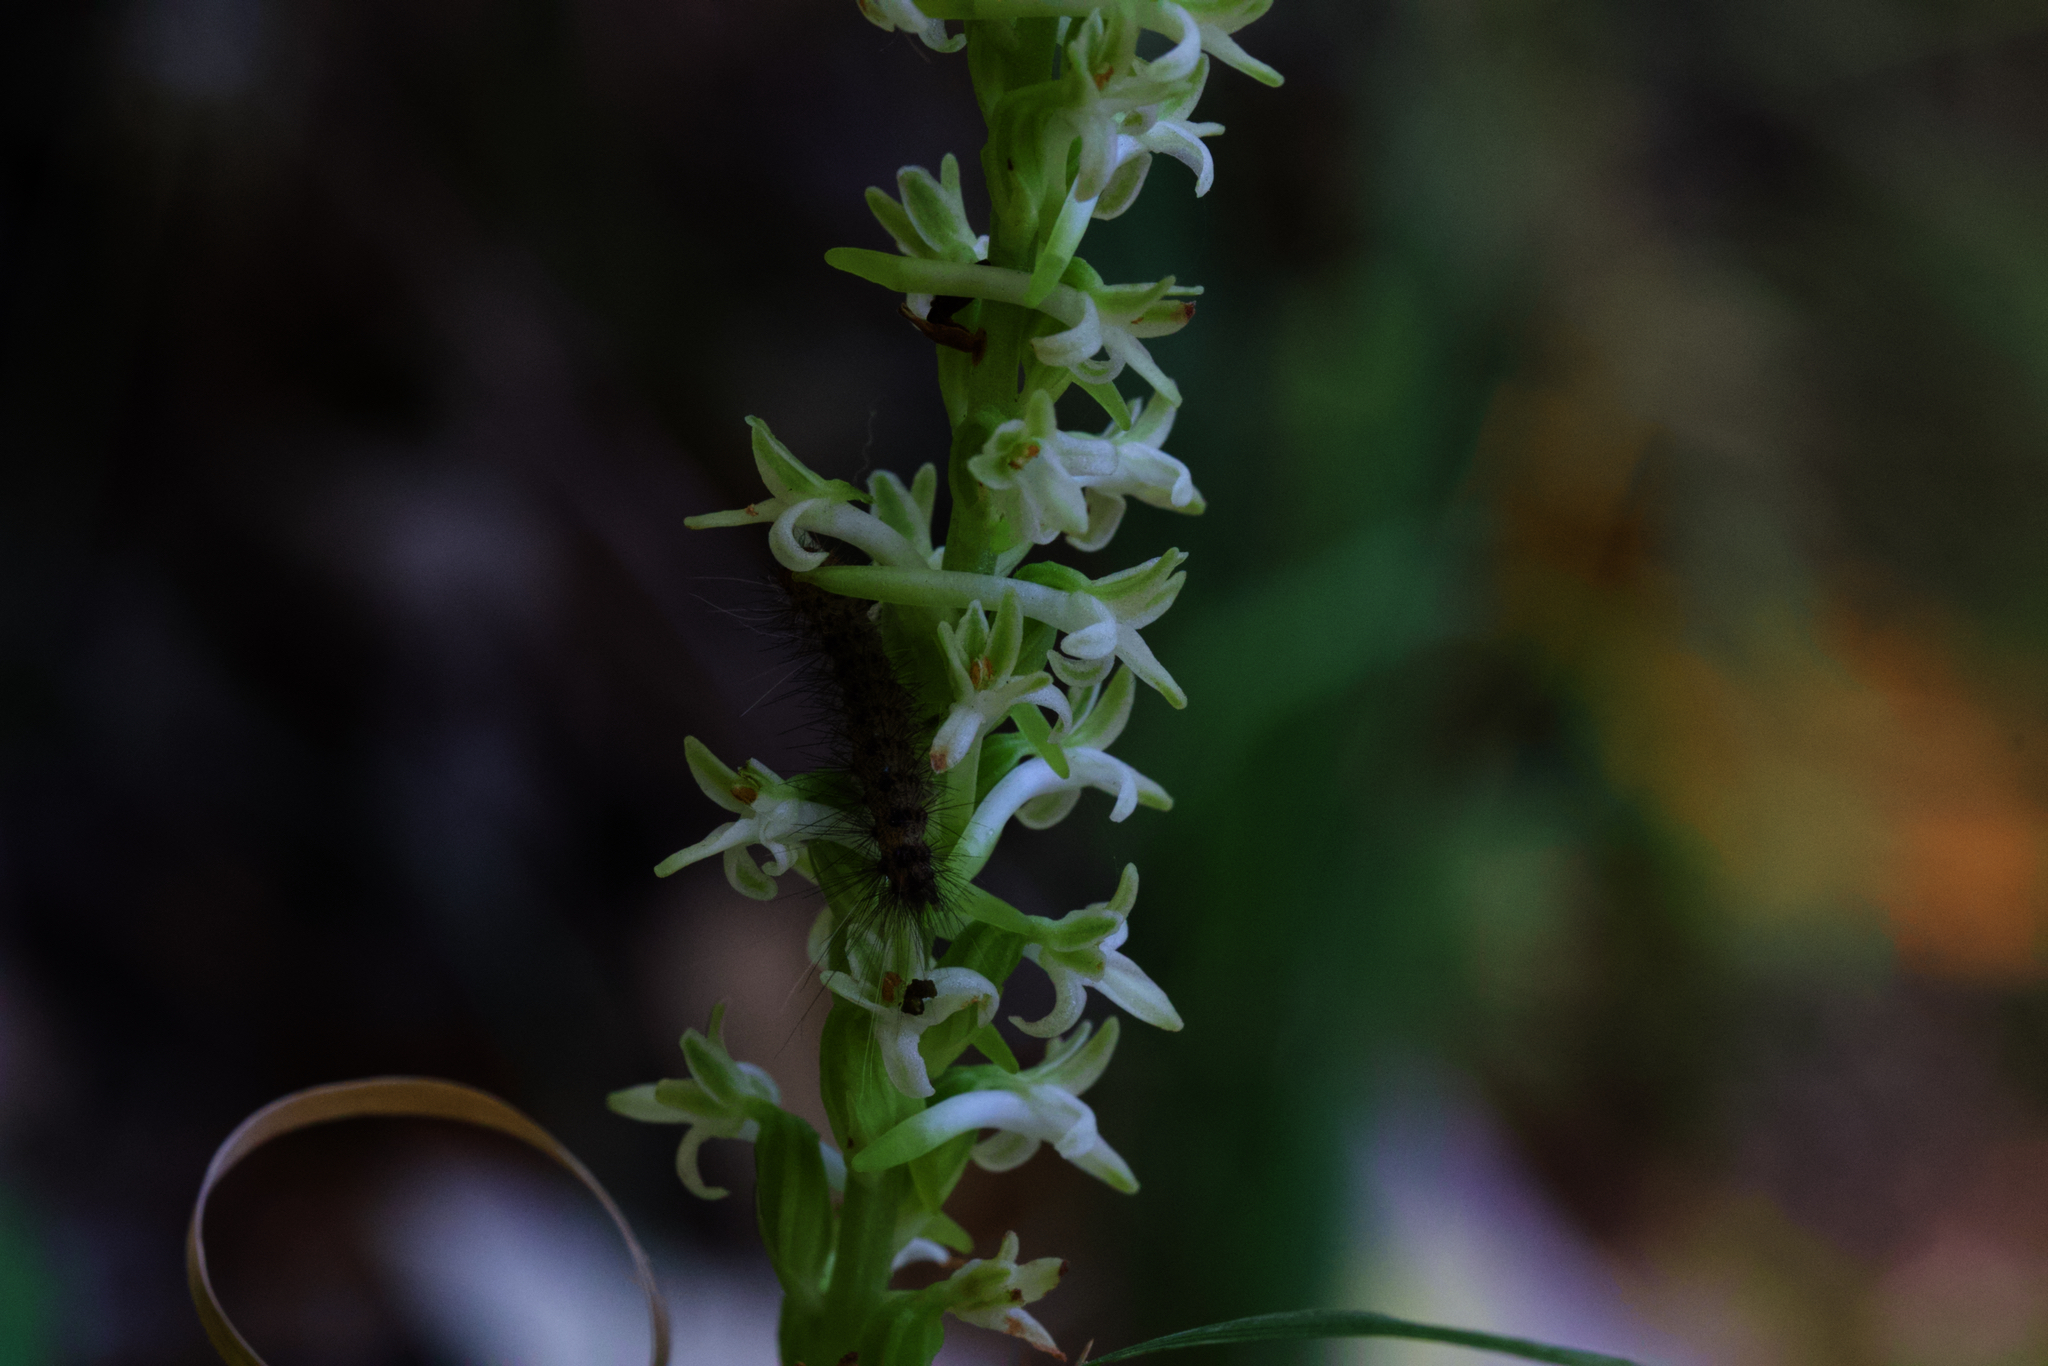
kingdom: Plantae
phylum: Tracheophyta
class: Liliopsida
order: Asparagales
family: Orchidaceae
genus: Platanthera
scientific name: Platanthera transversa
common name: Royal rein orchid
